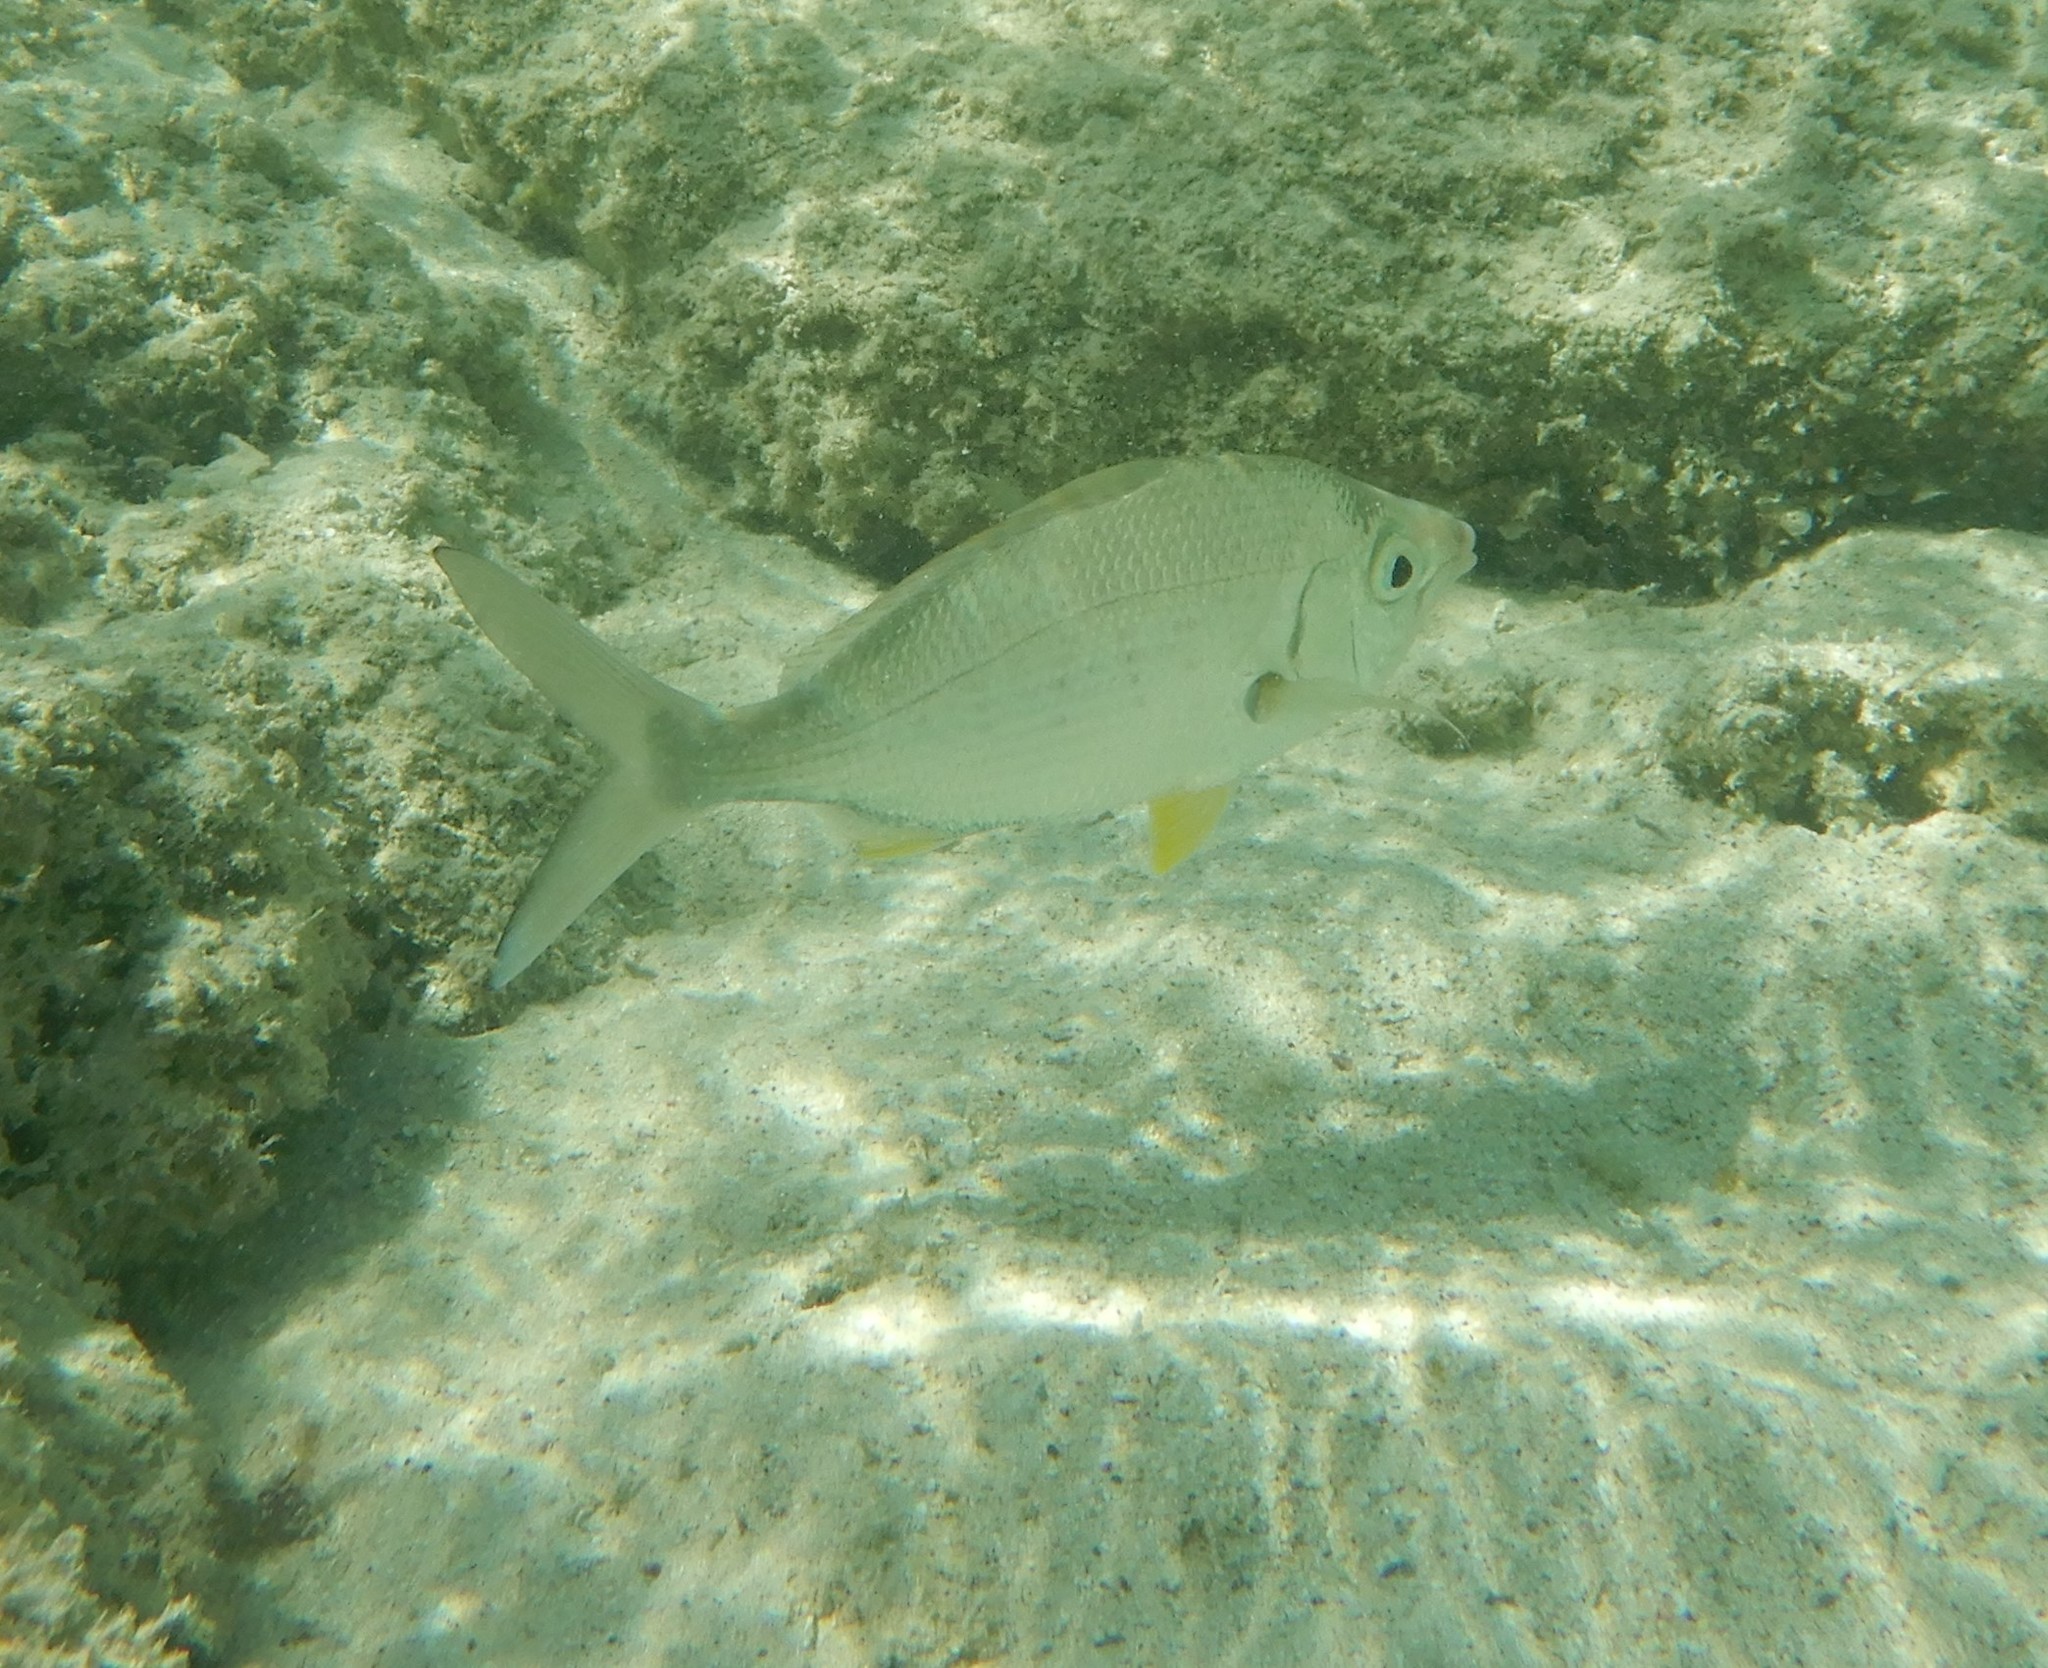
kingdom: Animalia
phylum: Chordata
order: Perciformes
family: Gerreidae
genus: Gerres
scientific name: Gerres longirostris
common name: Strongspine silver-biddy
